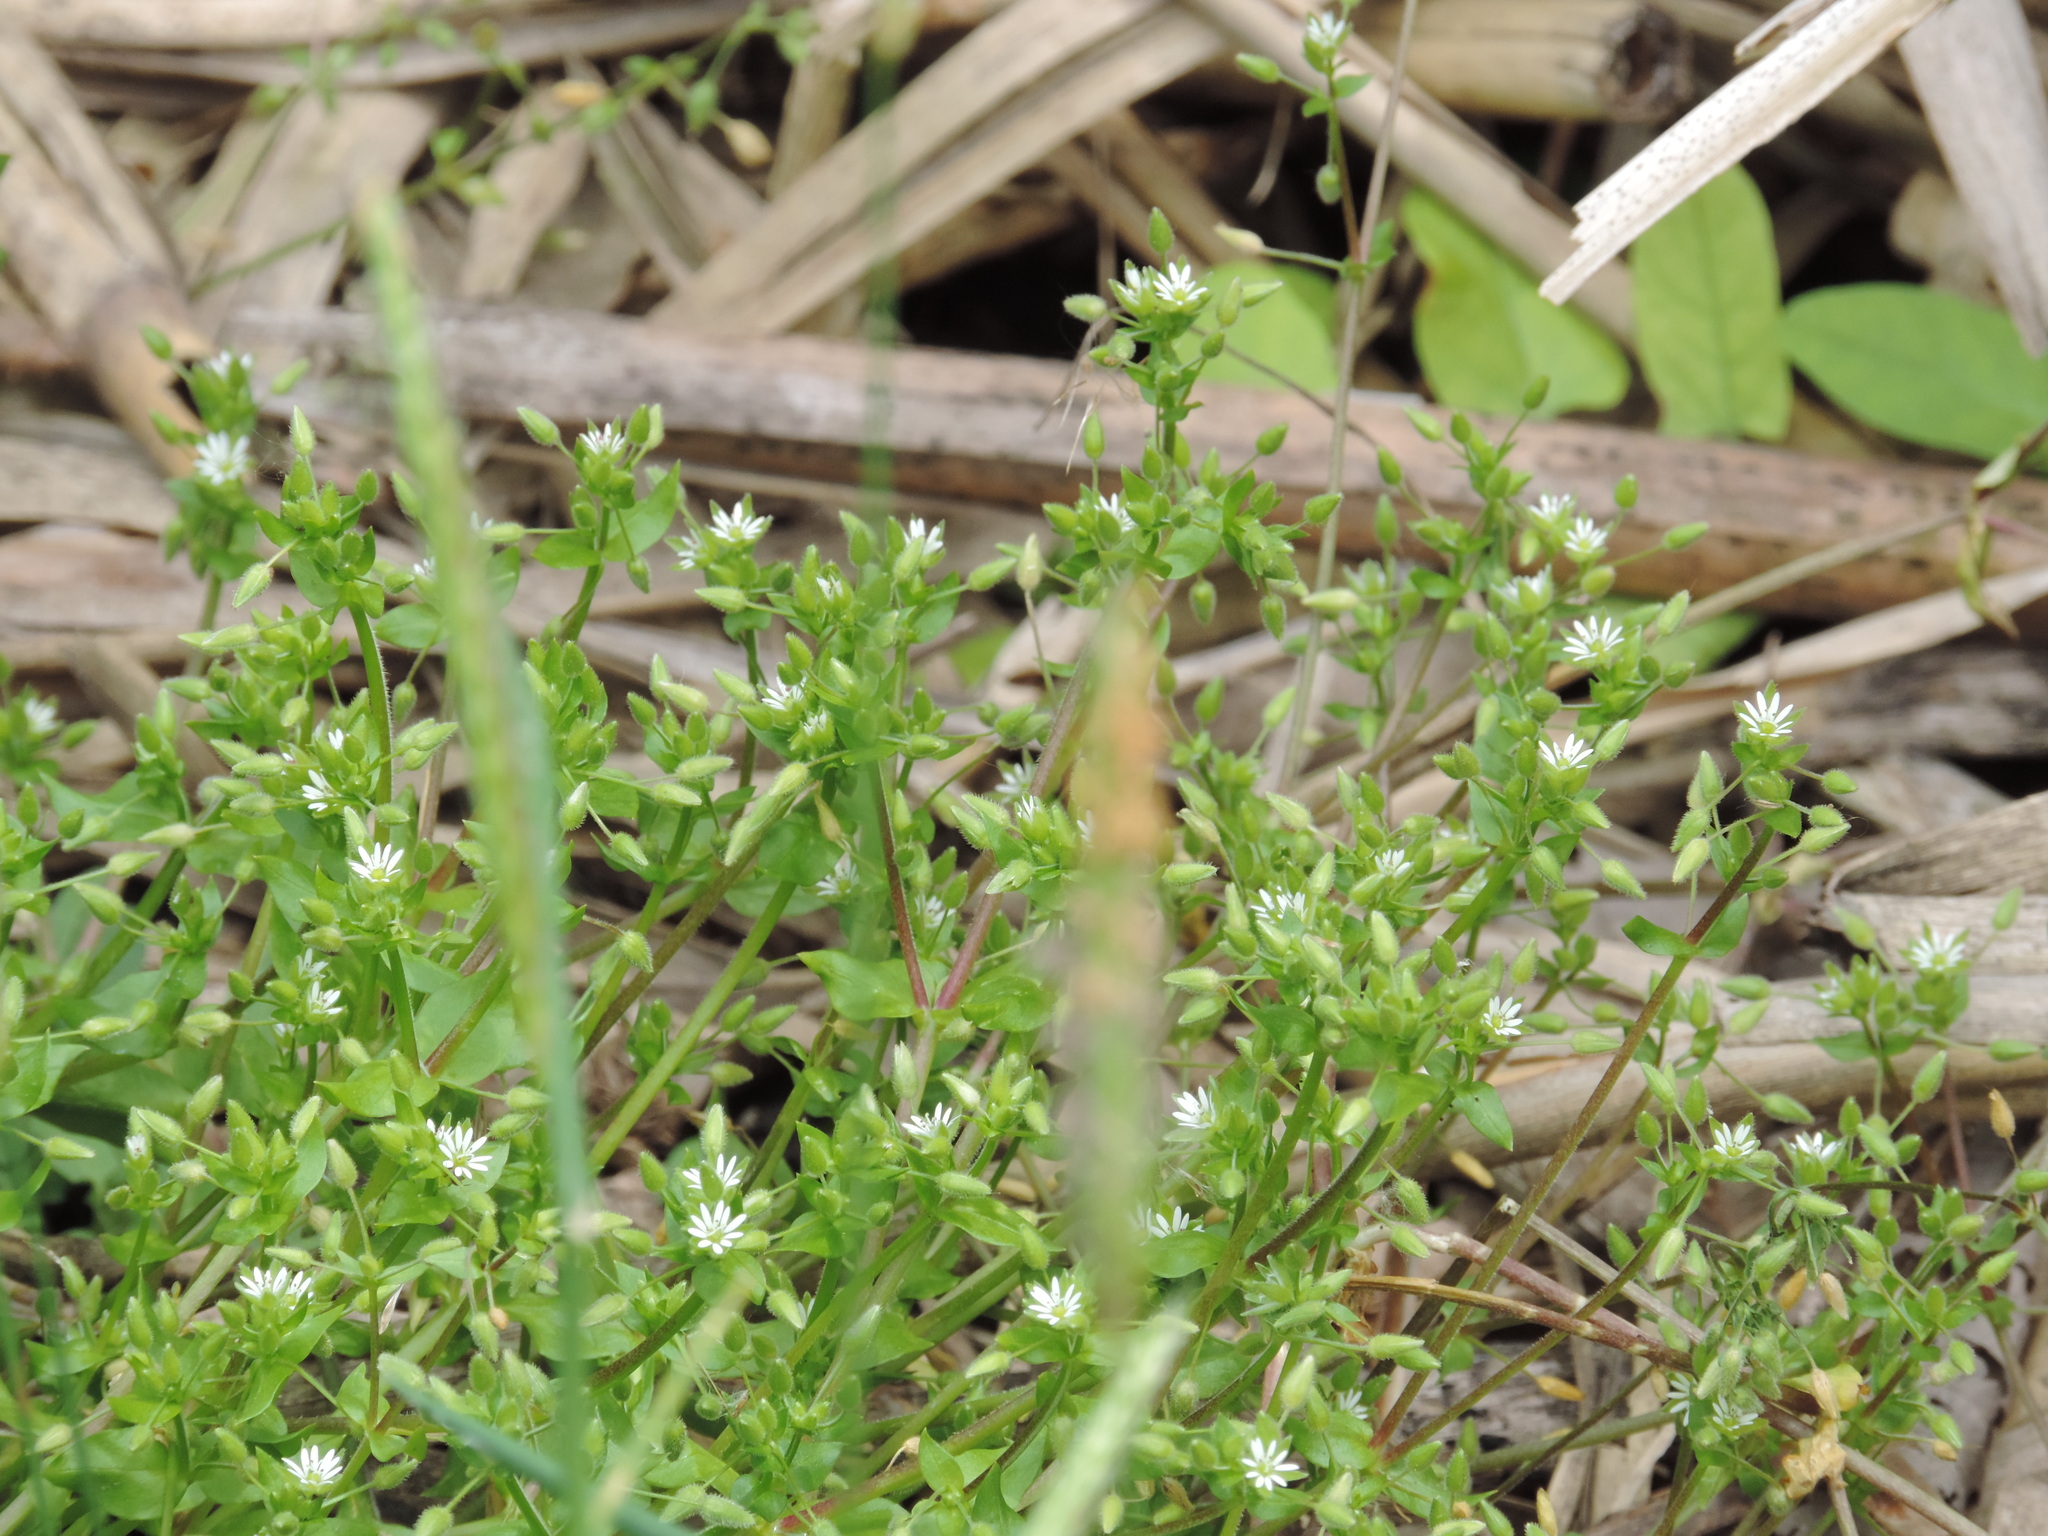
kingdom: Plantae
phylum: Tracheophyta
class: Magnoliopsida
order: Caryophyllales
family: Caryophyllaceae
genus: Stellaria
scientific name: Stellaria media
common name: Common chickweed
